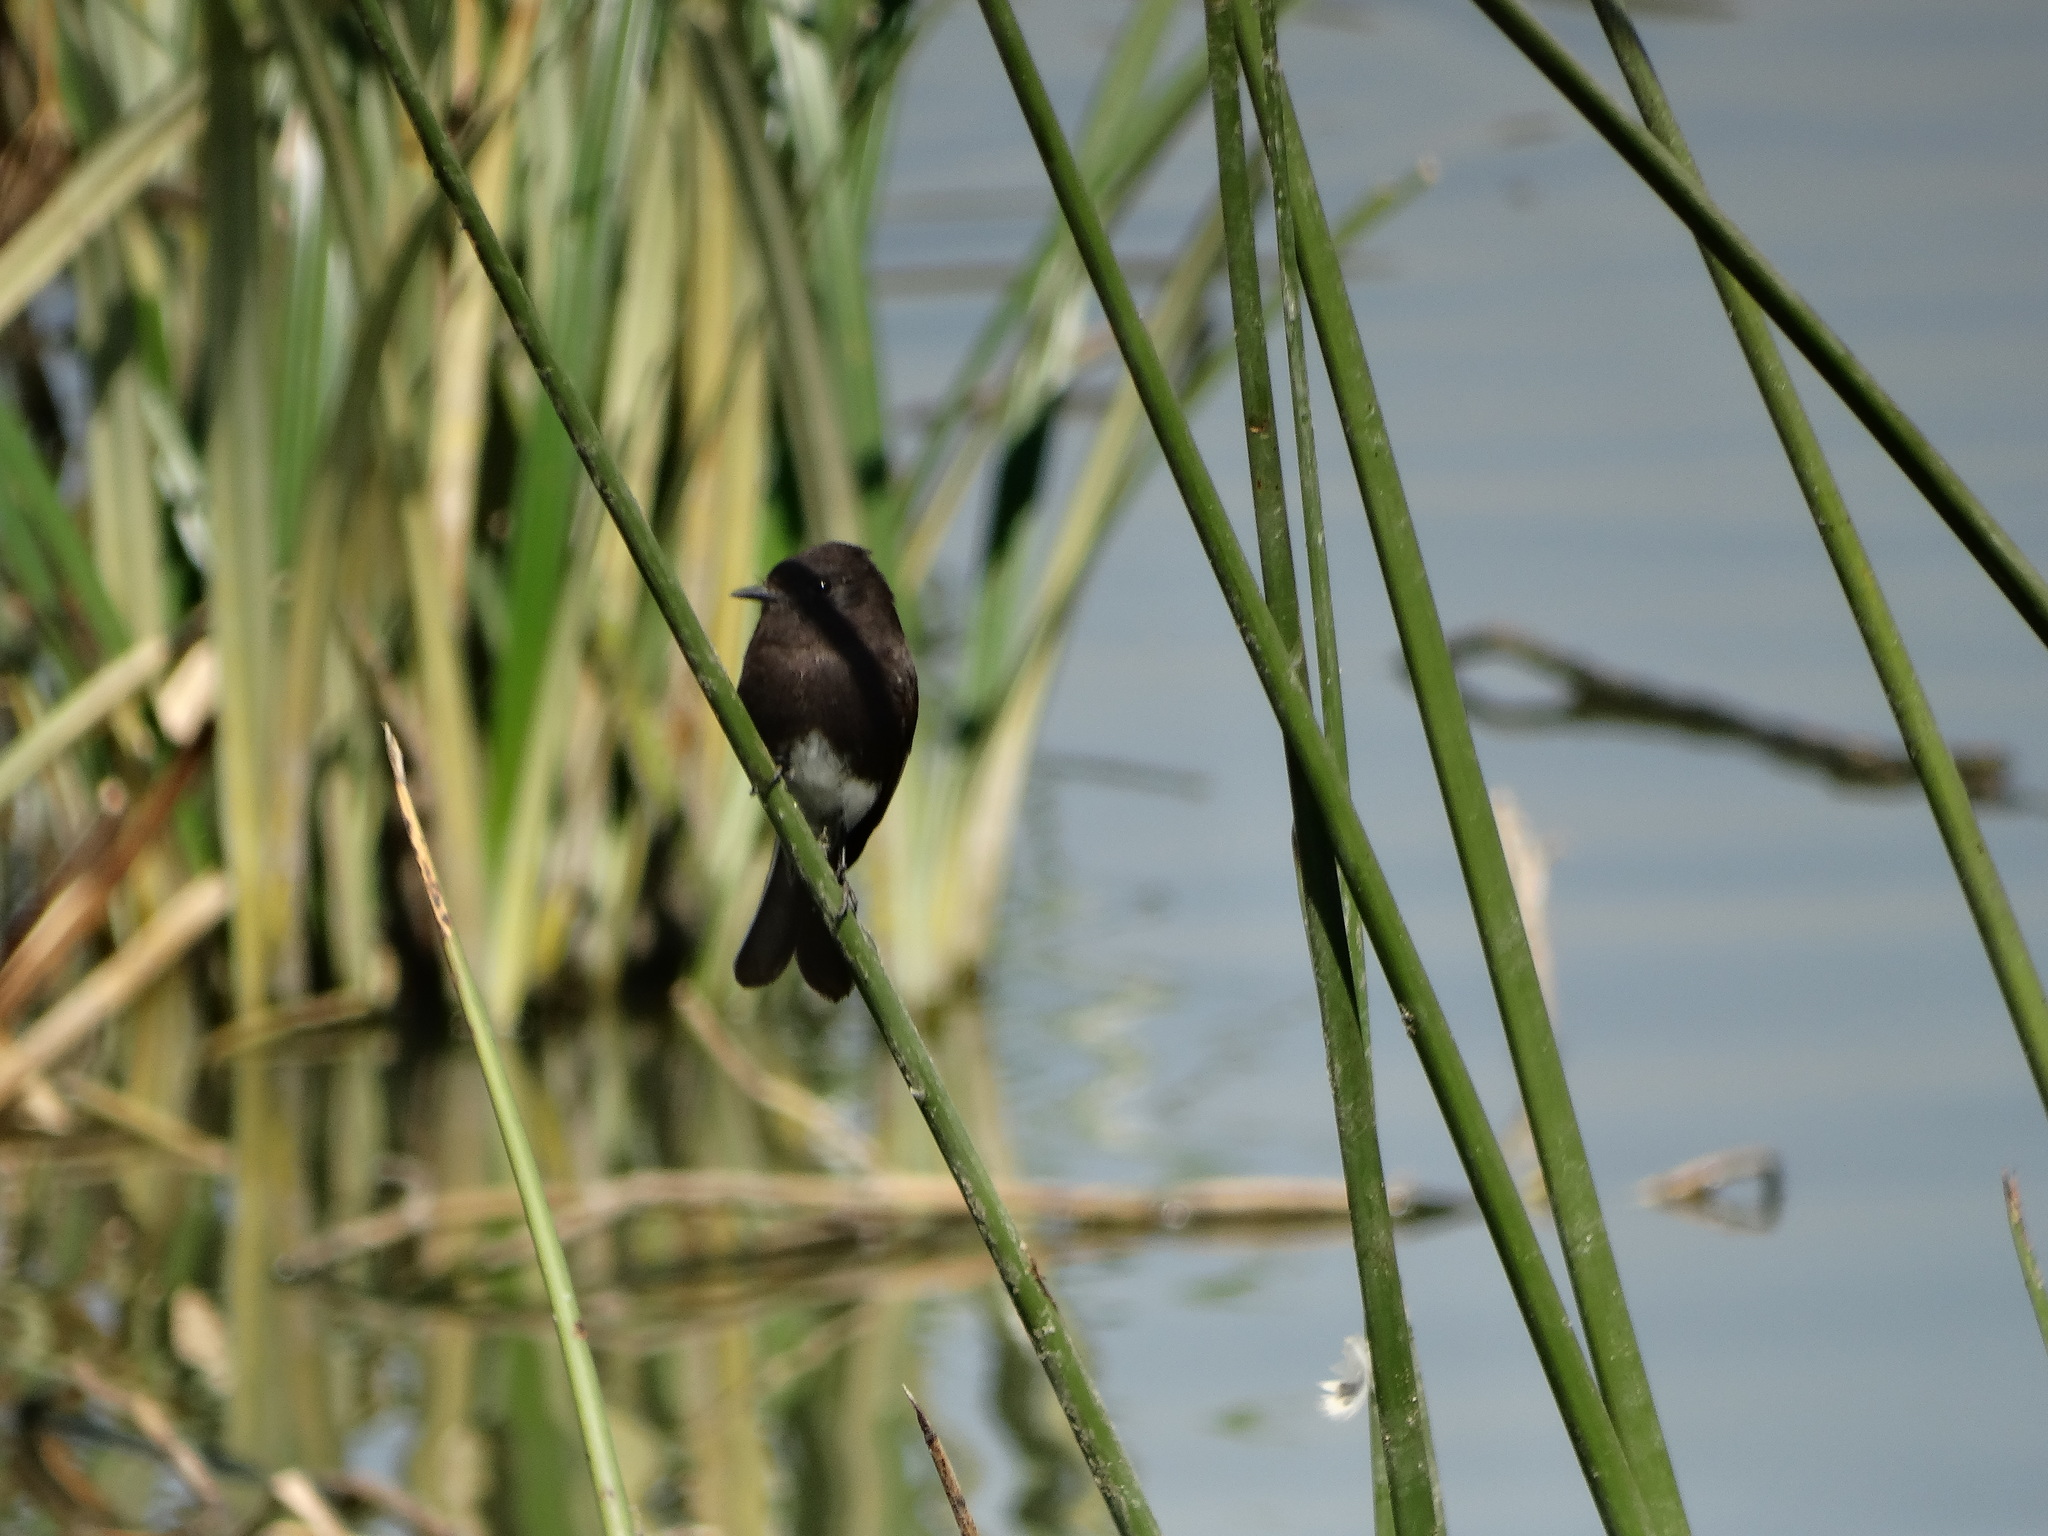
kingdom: Animalia
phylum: Chordata
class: Aves
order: Passeriformes
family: Tyrannidae
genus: Sayornis
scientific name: Sayornis nigricans
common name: Black phoebe
